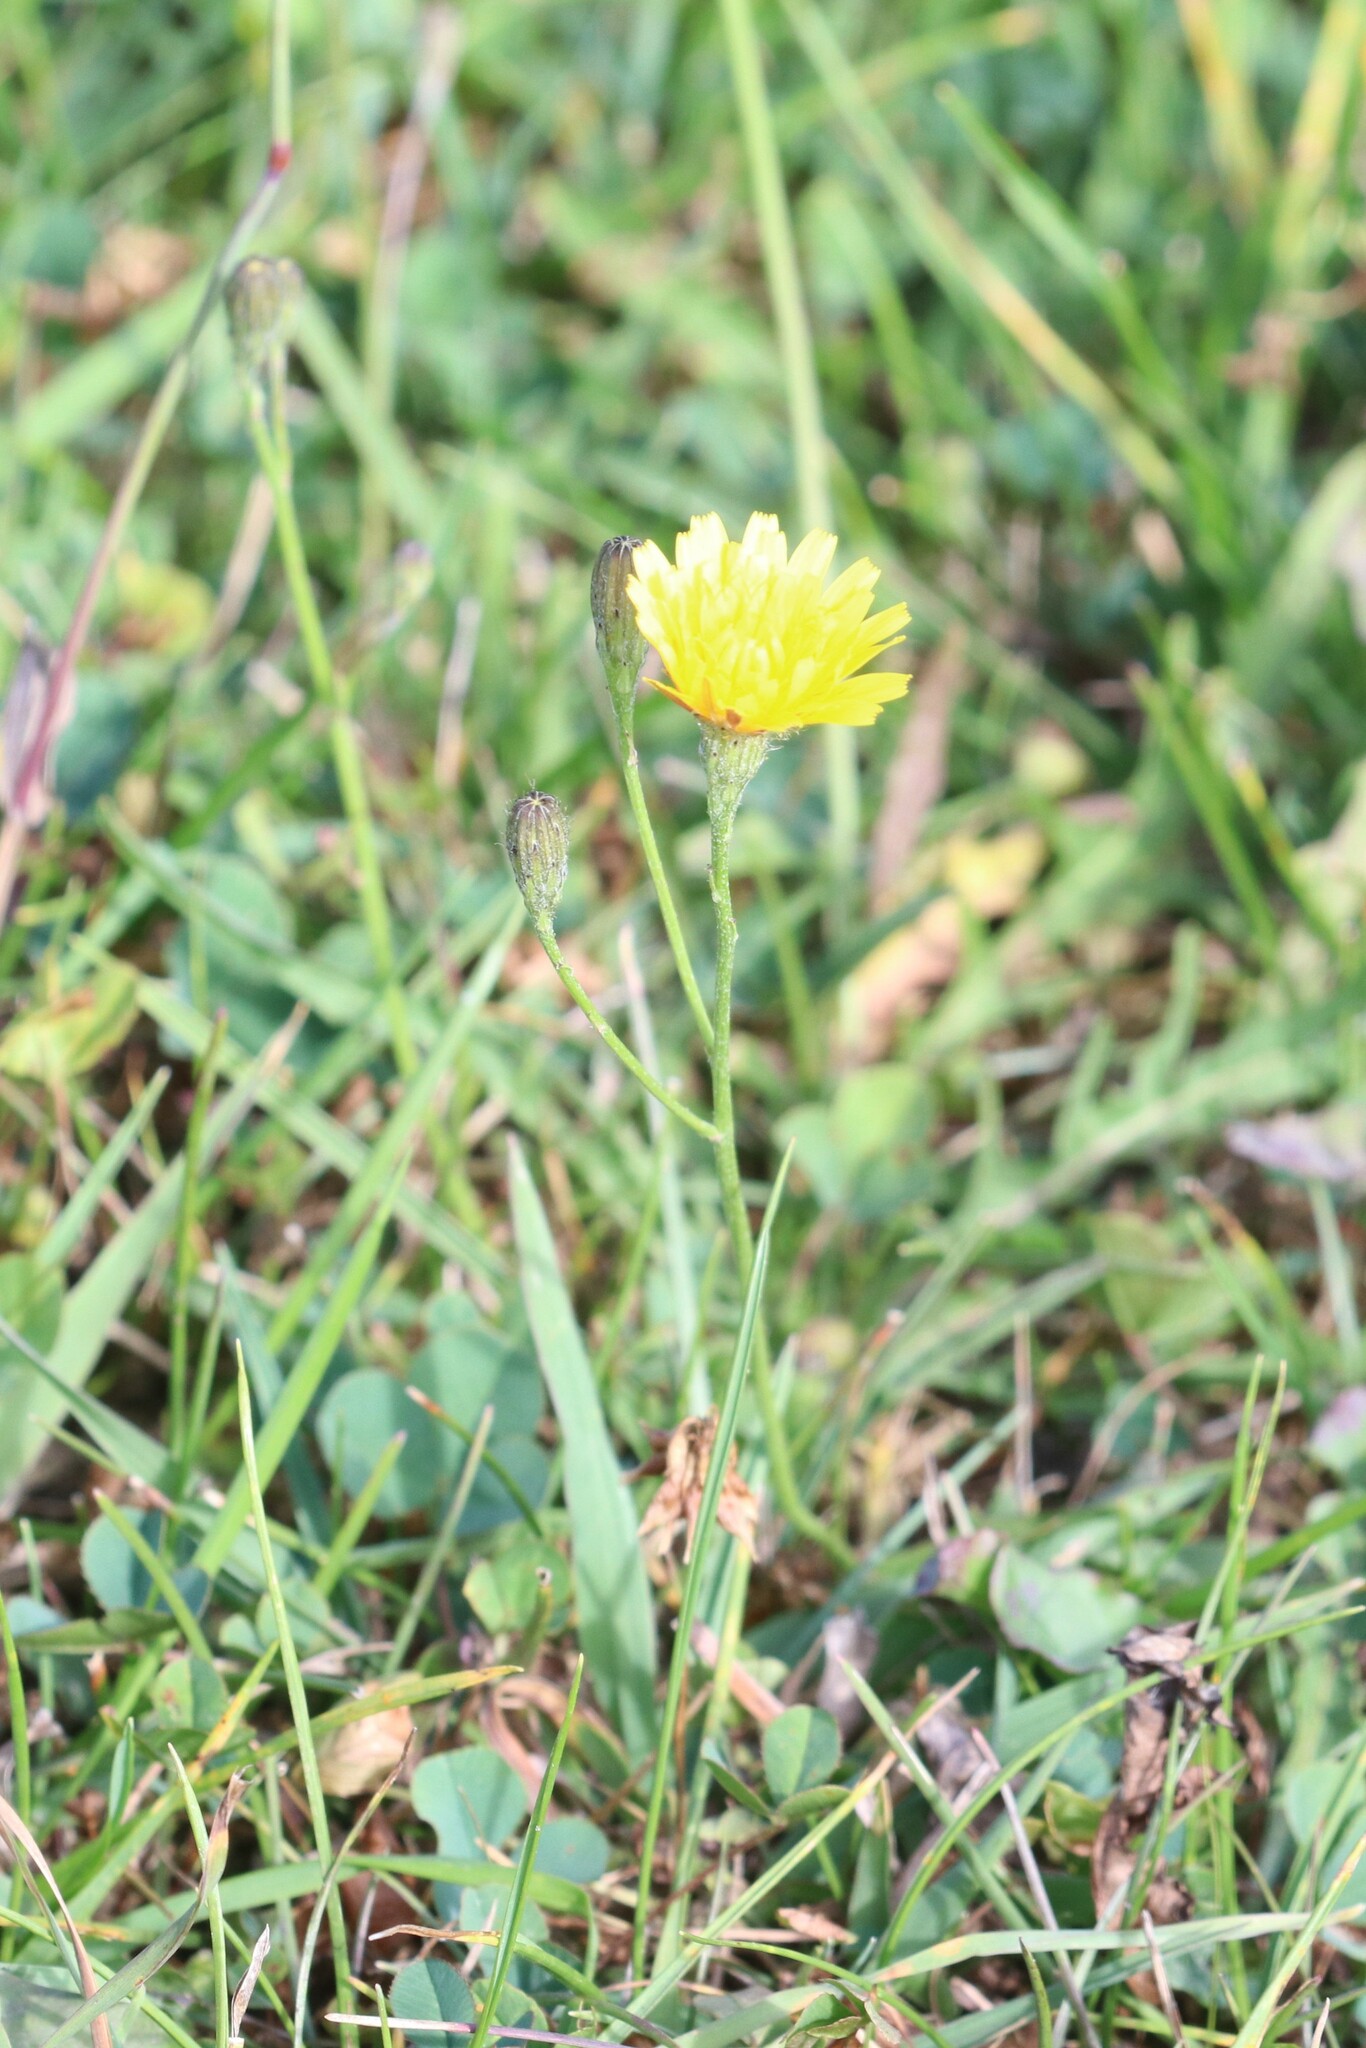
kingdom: Plantae
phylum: Tracheophyta
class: Magnoliopsida
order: Asterales
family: Asteraceae
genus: Scorzoneroides
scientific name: Scorzoneroides autumnalis
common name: Autumn hawkbit
